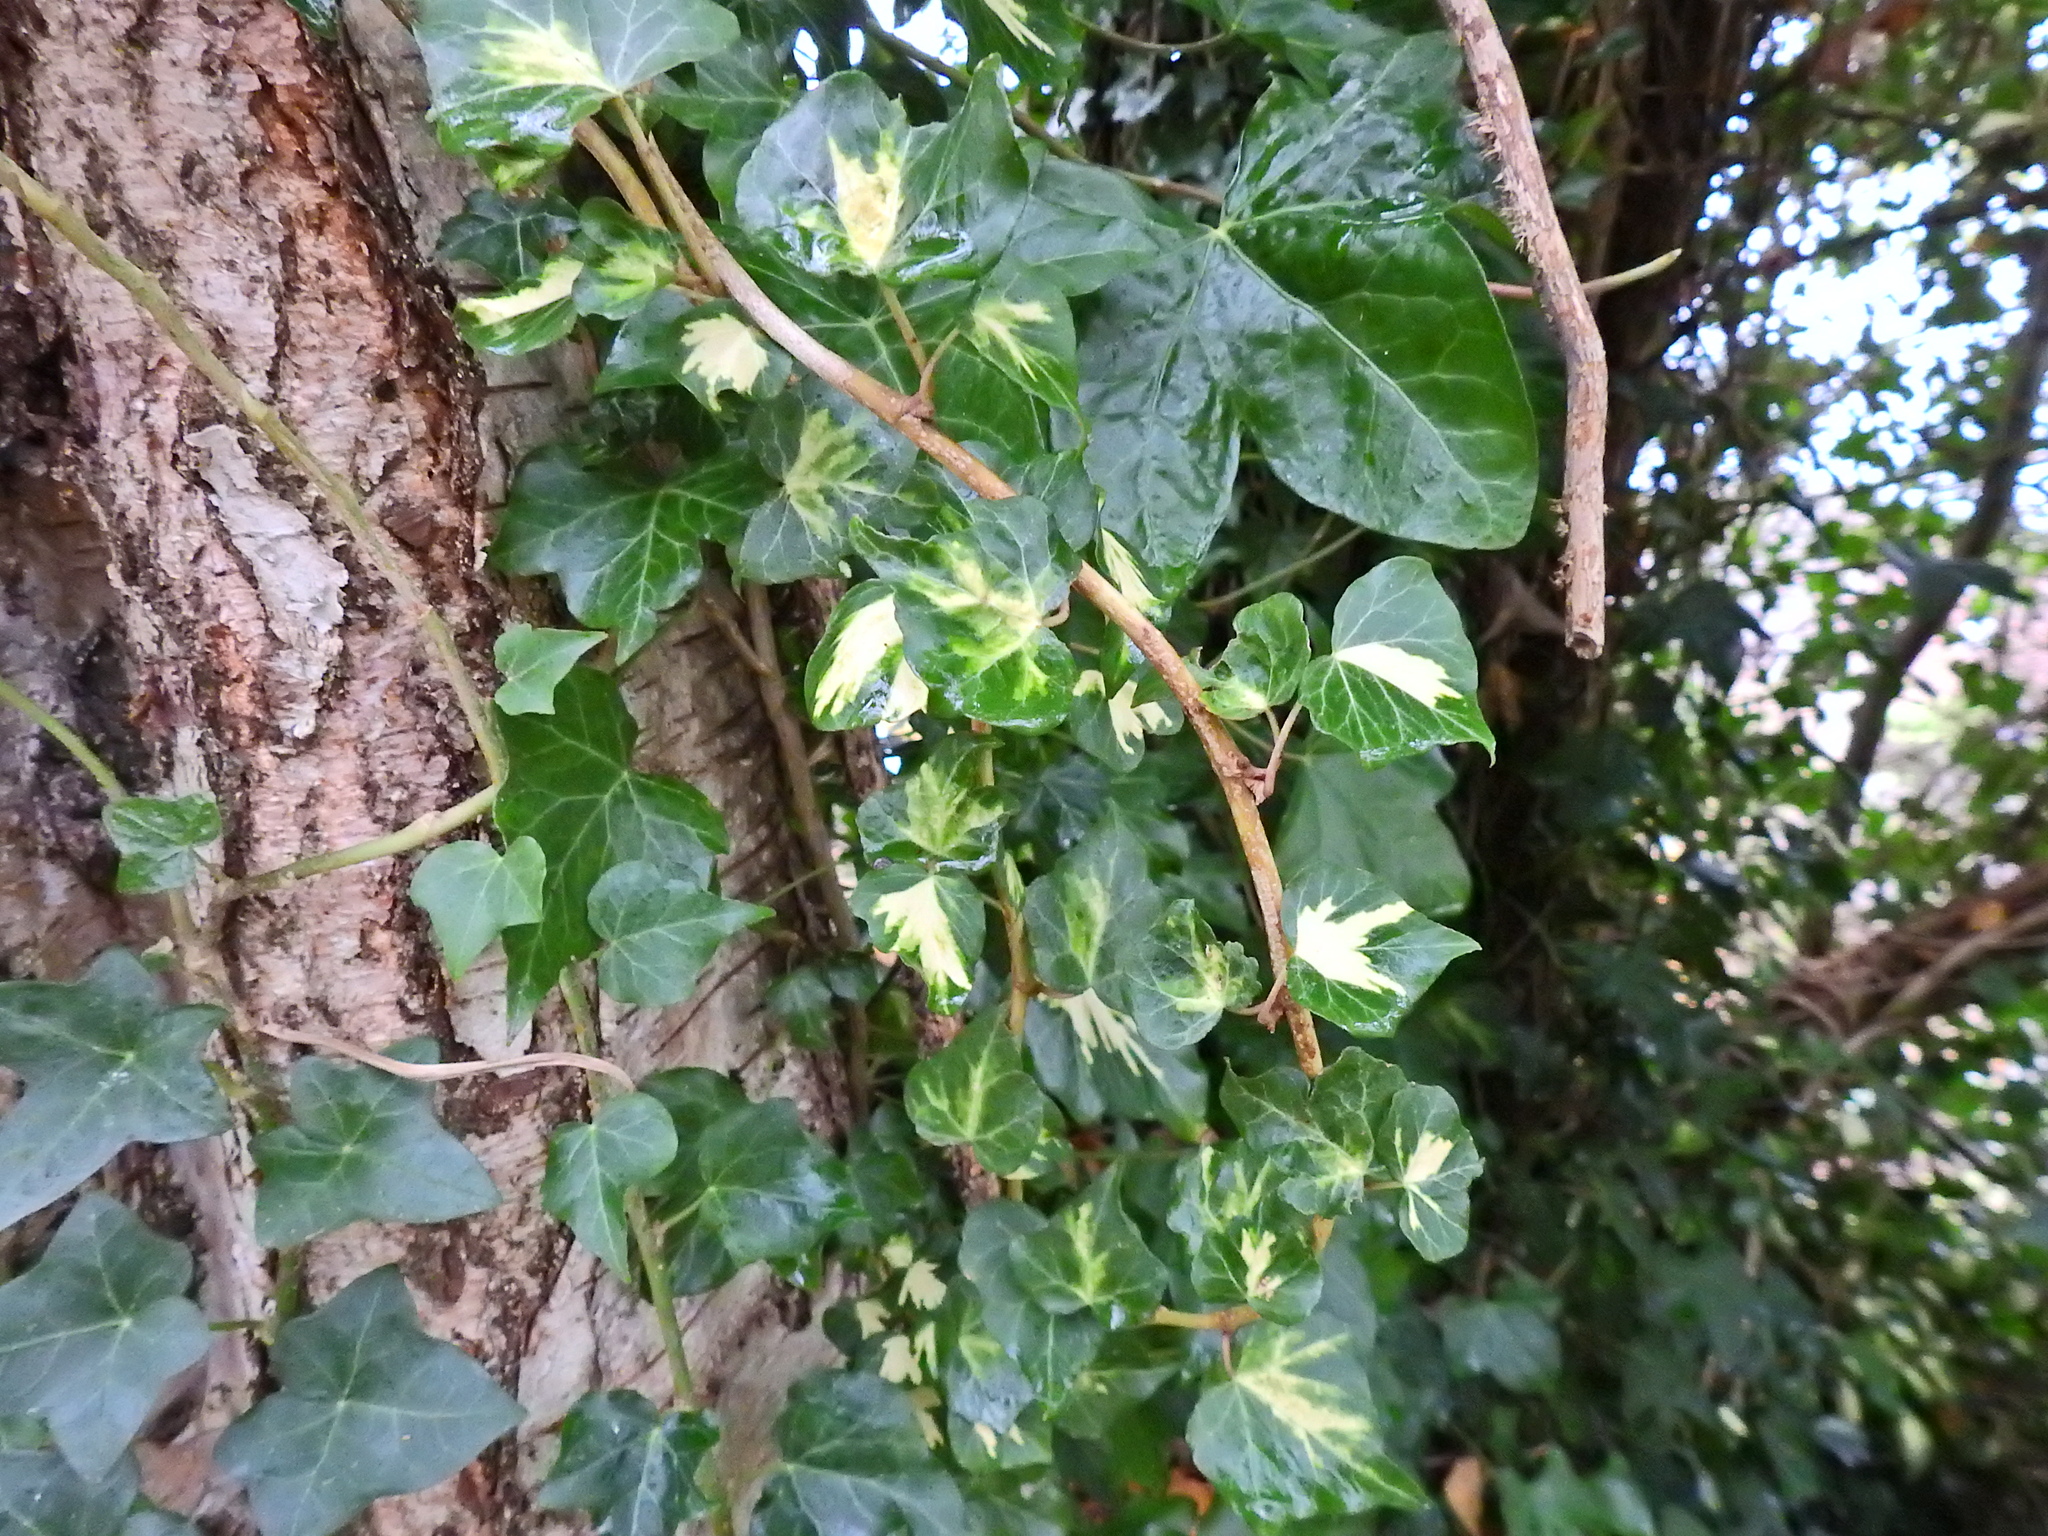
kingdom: Plantae
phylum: Tracheophyta
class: Magnoliopsida
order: Apiales
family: Araliaceae
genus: Hedera
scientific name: Hedera helix
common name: Ivy
